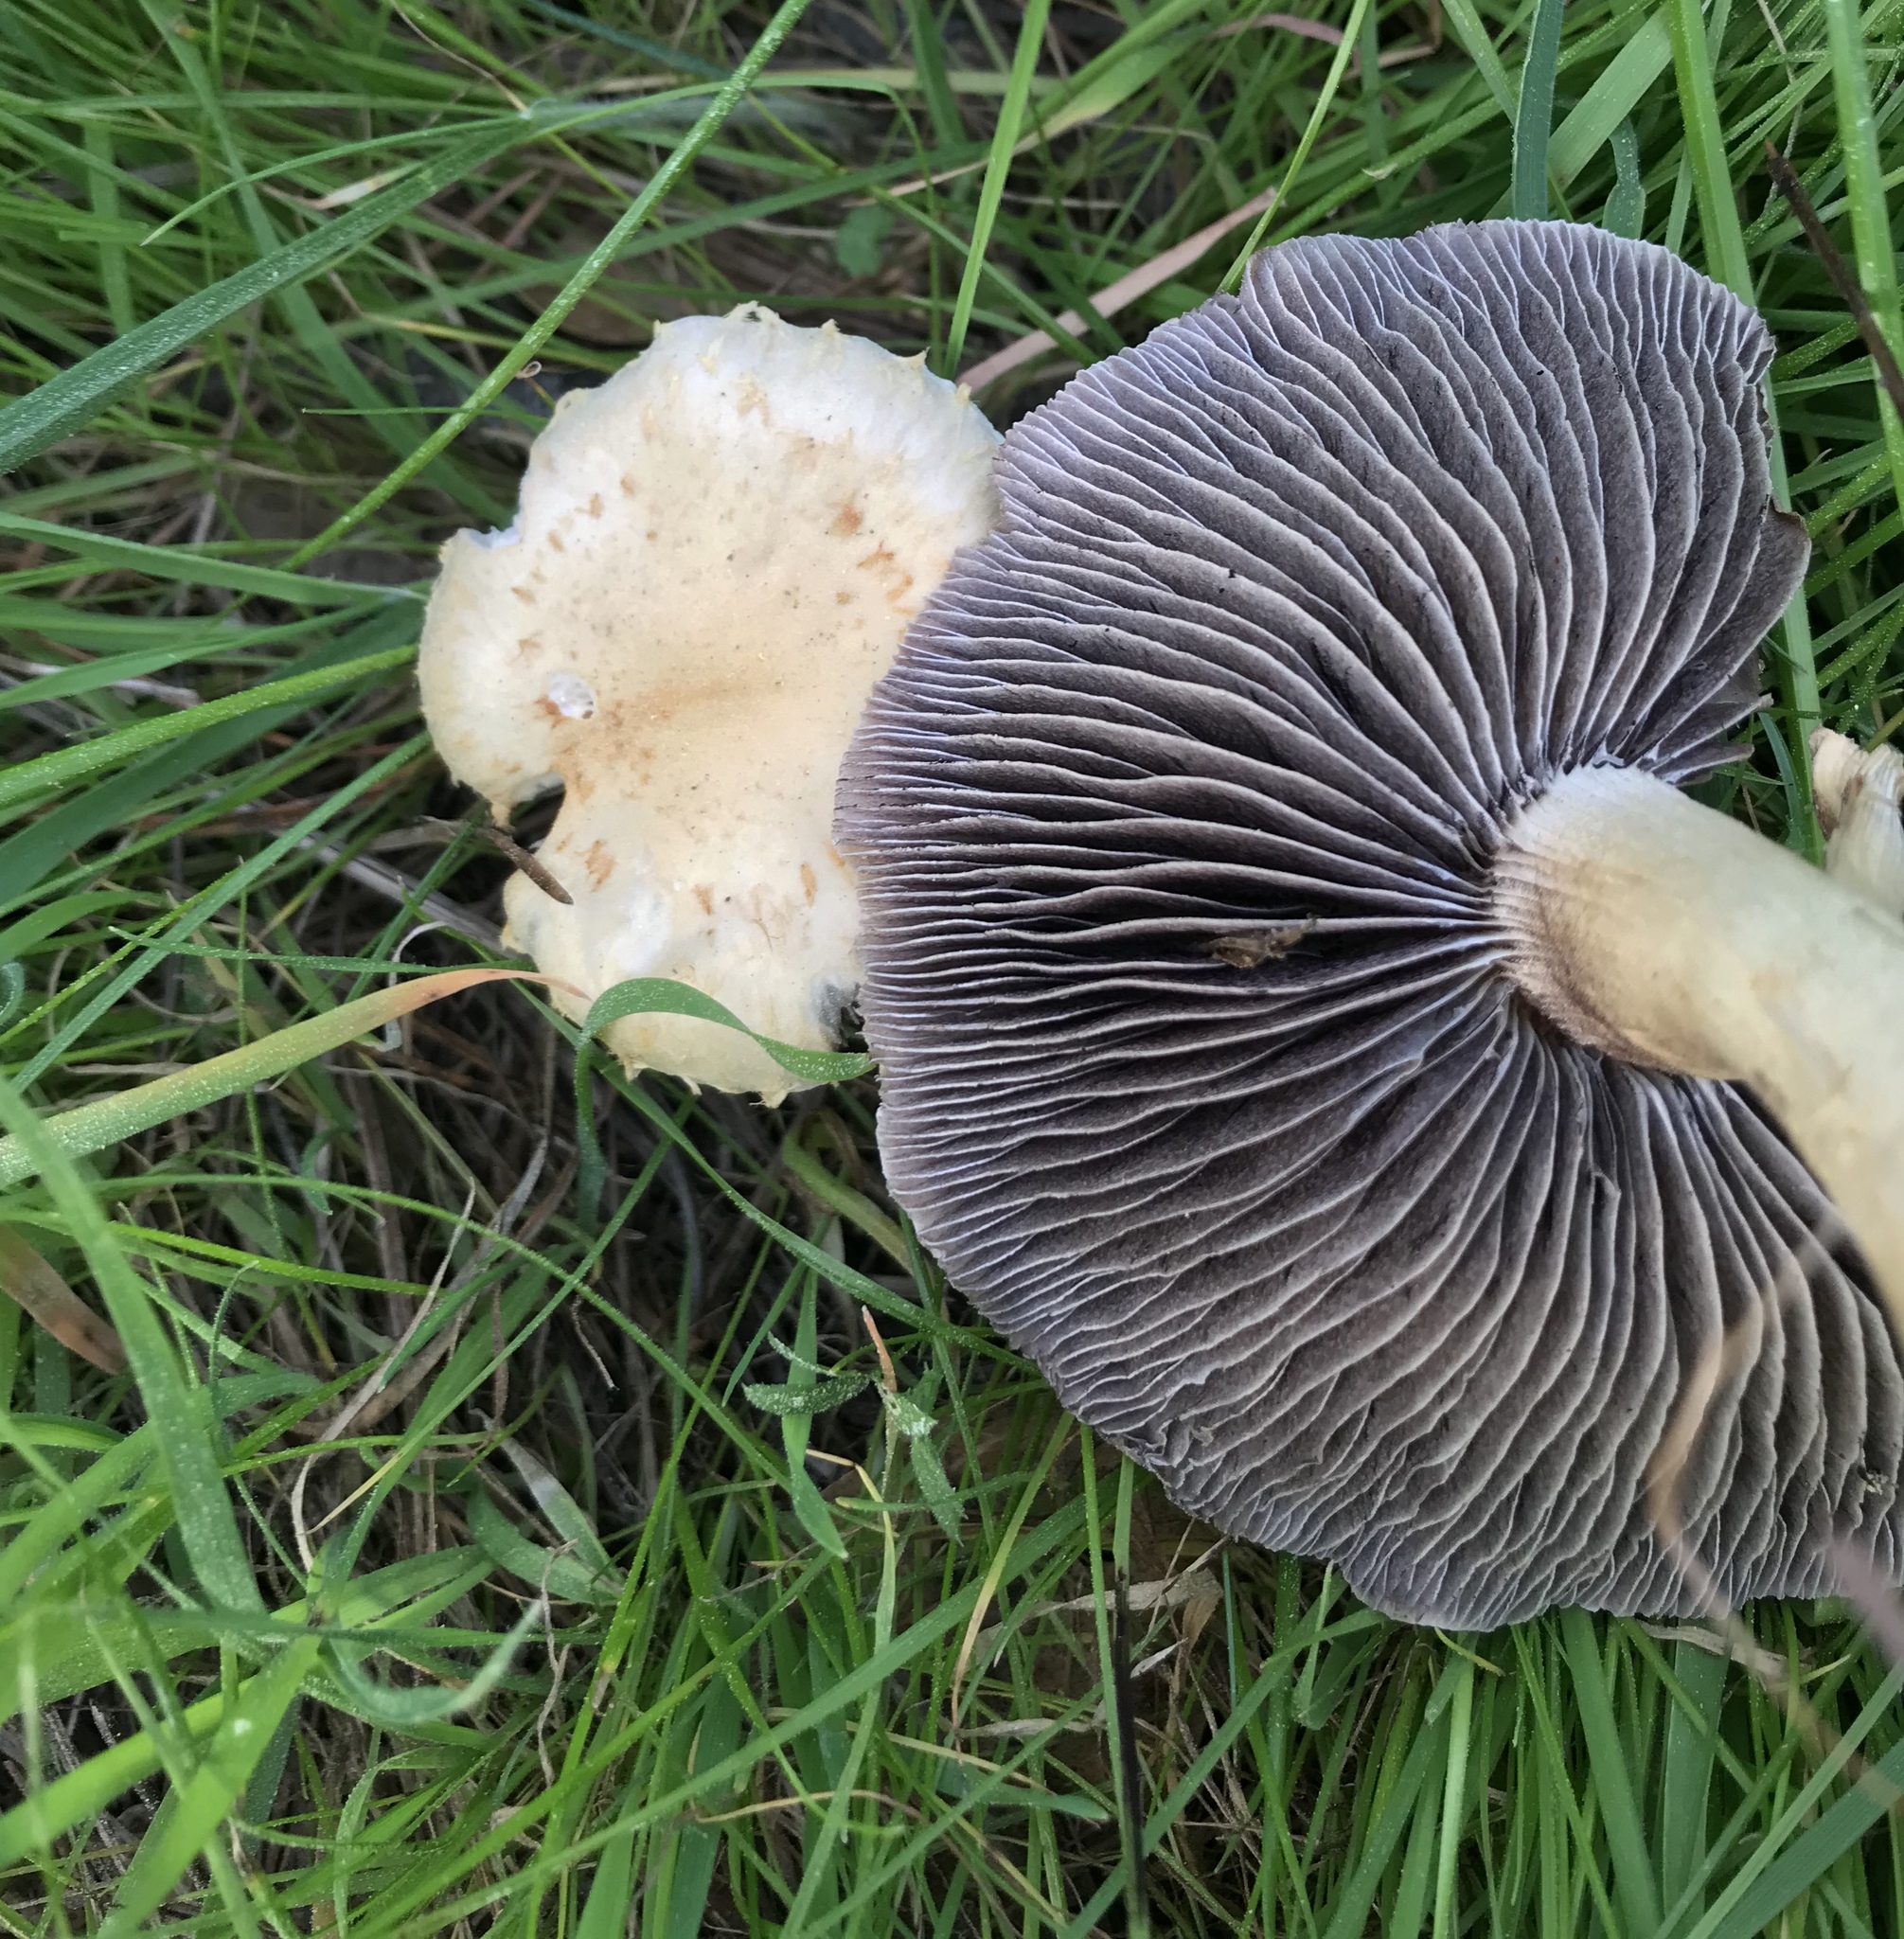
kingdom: Fungi
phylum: Basidiomycota
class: Agaricomycetes
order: Agaricales
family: Strophariaceae
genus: Leratiomyces
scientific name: Leratiomyces percevalii
